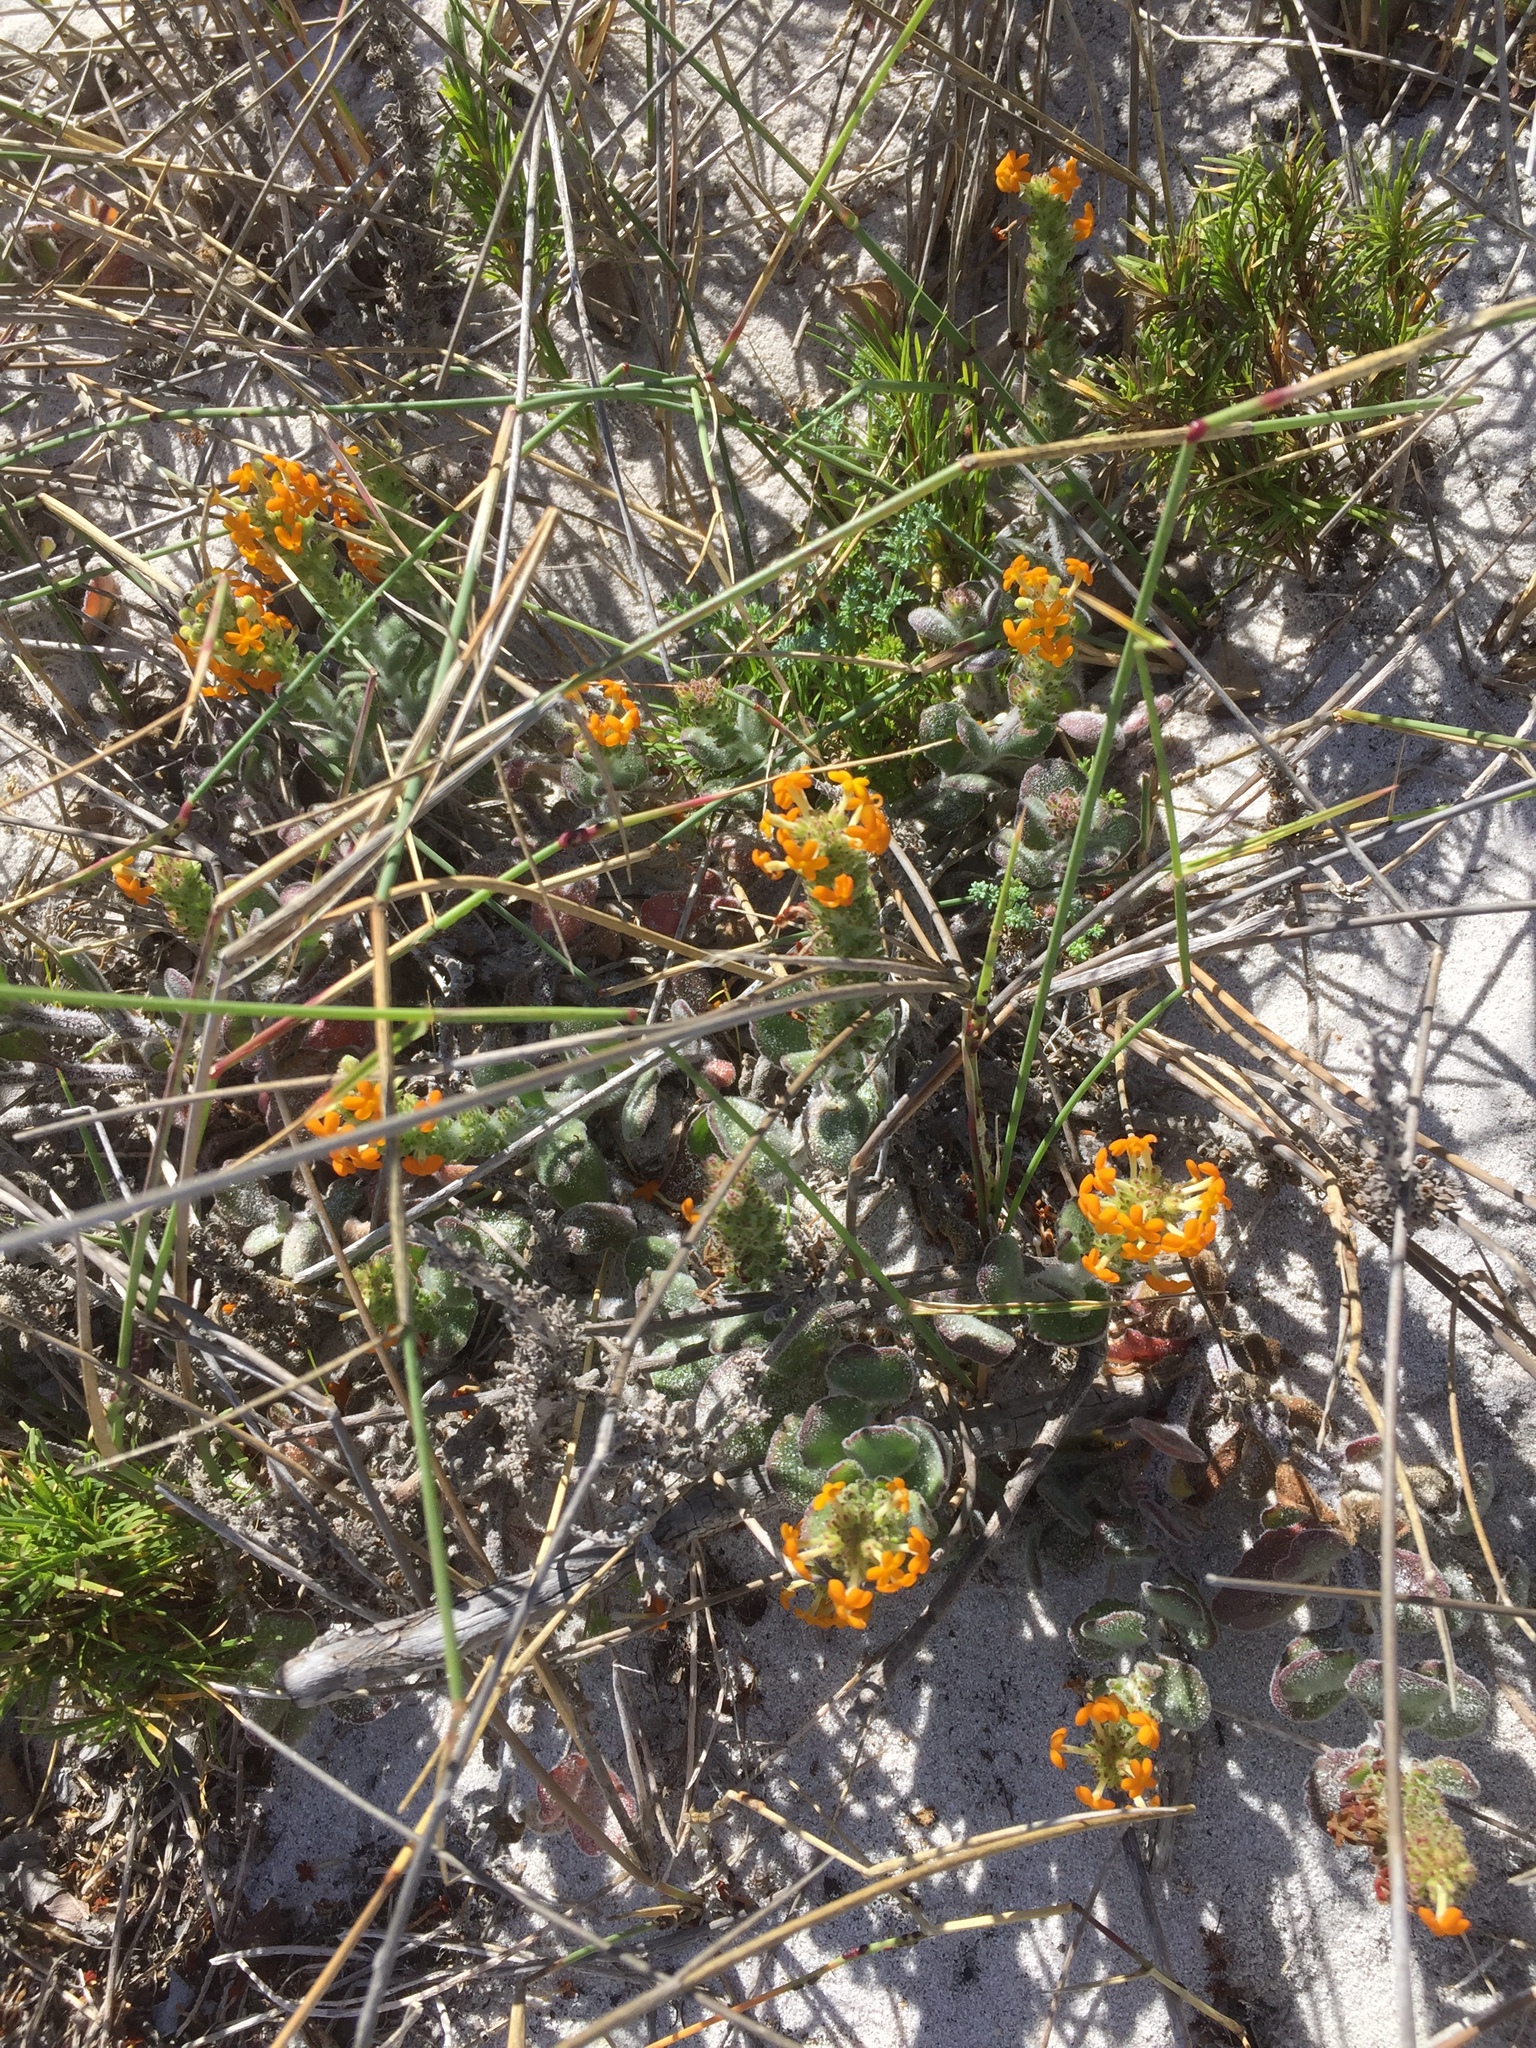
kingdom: Plantae
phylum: Tracheophyta
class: Magnoliopsida
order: Lamiales
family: Scrophulariaceae
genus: Manulea
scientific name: Manulea tomentosa
